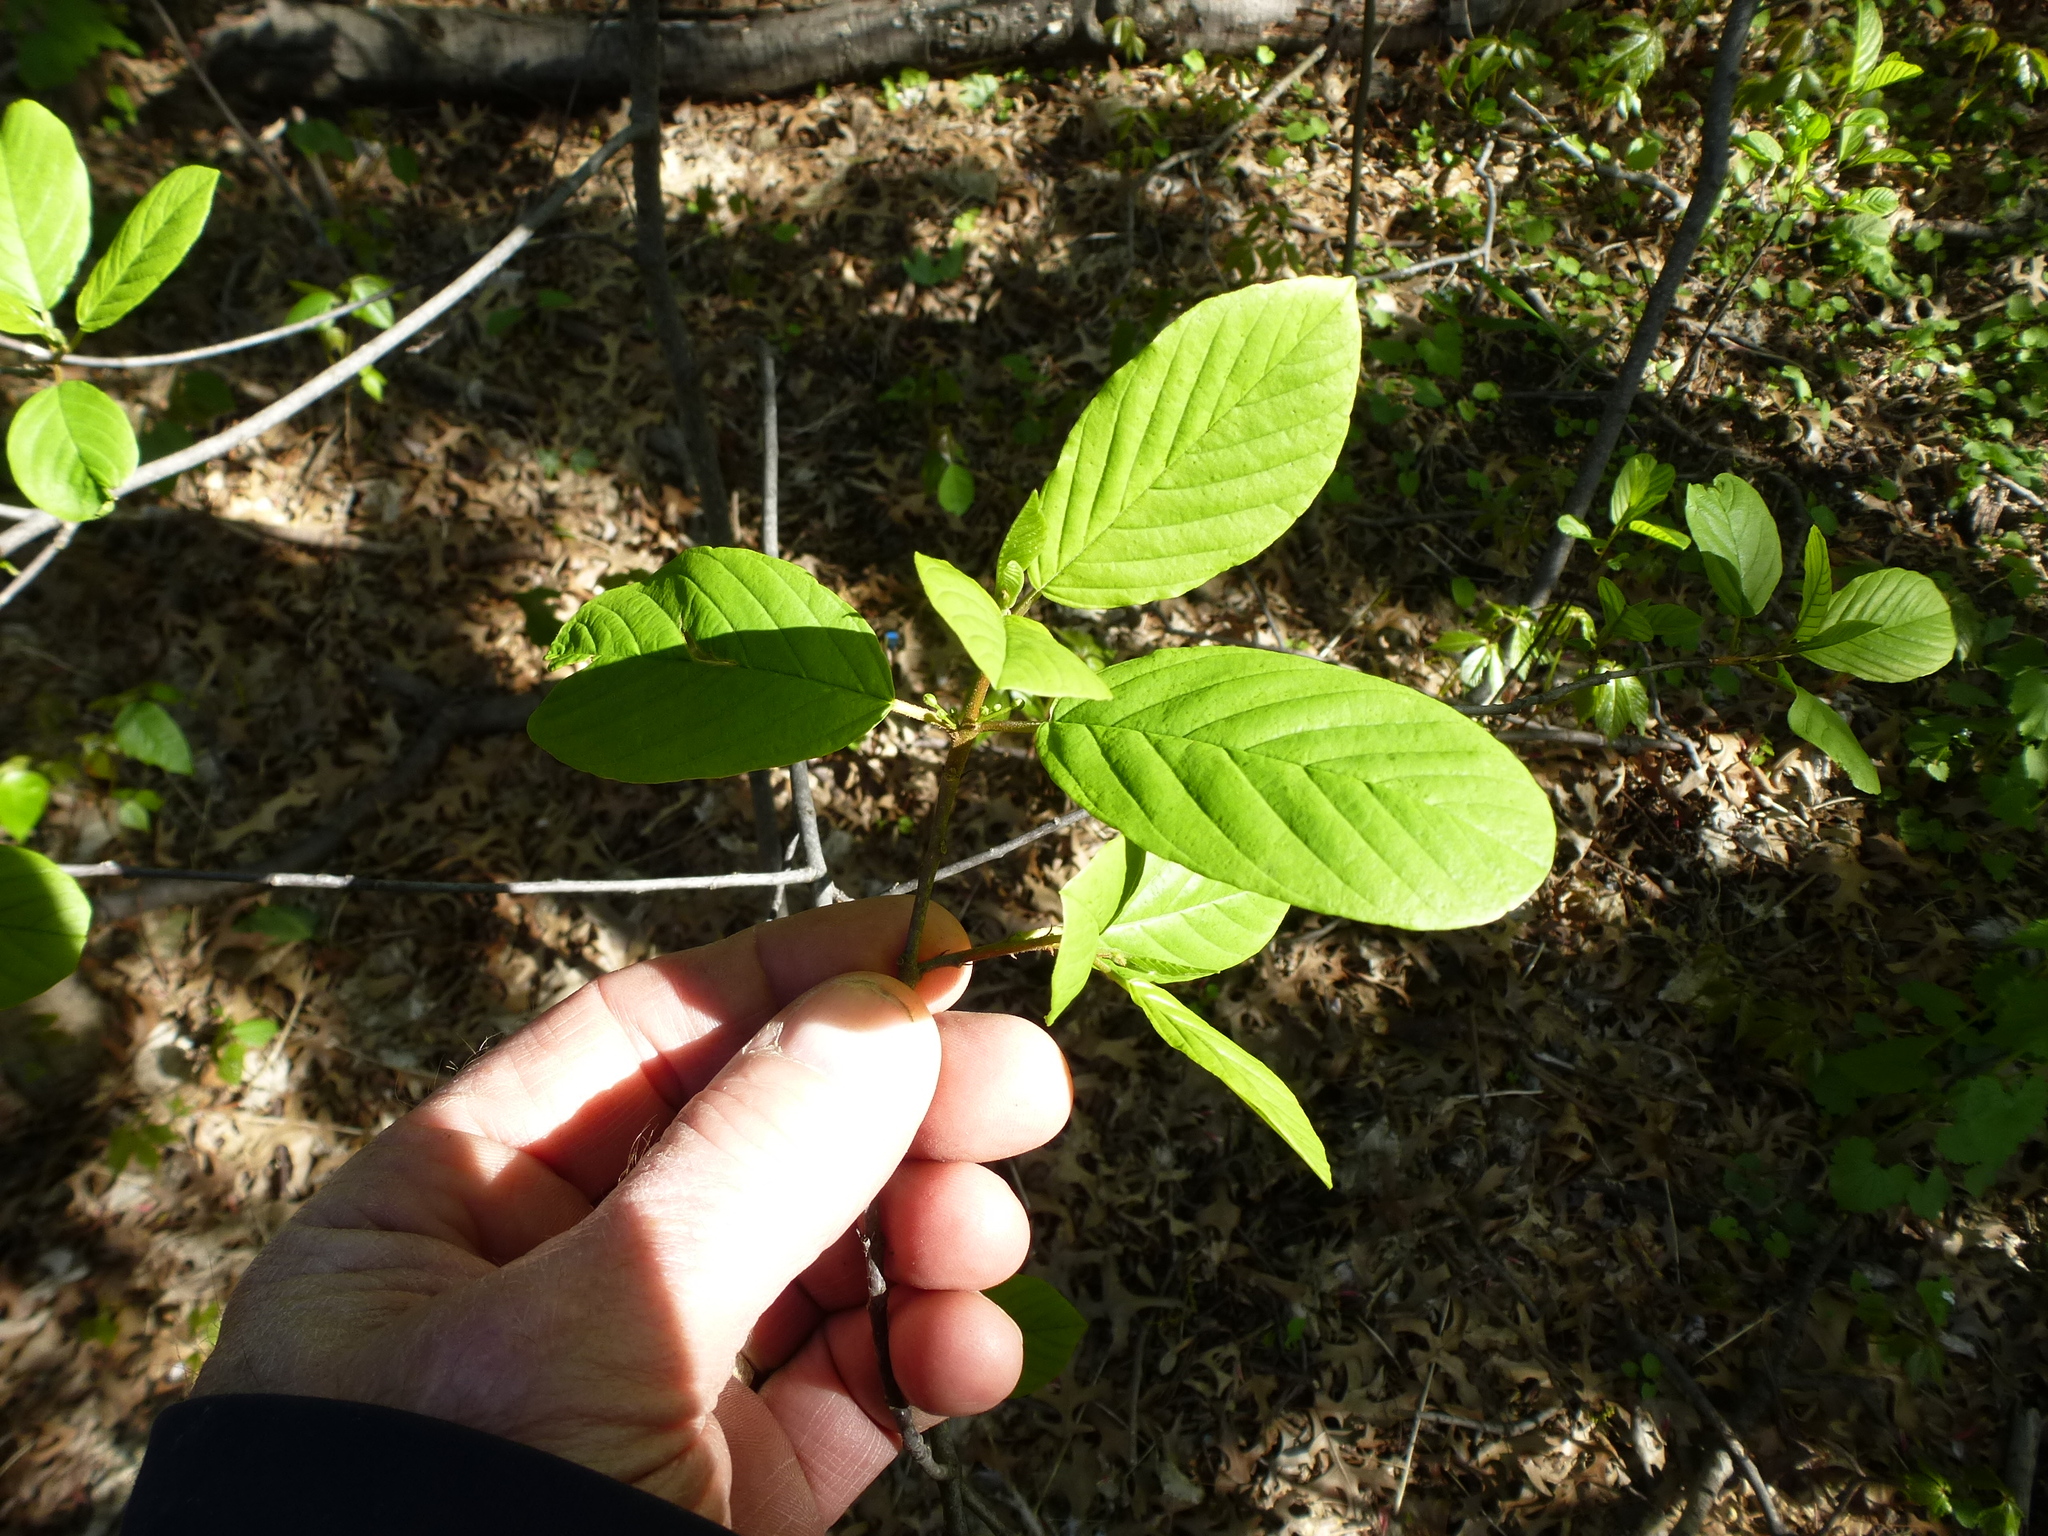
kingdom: Plantae
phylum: Tracheophyta
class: Magnoliopsida
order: Rosales
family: Rhamnaceae
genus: Frangula
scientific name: Frangula alnus
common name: Alder buckthorn
